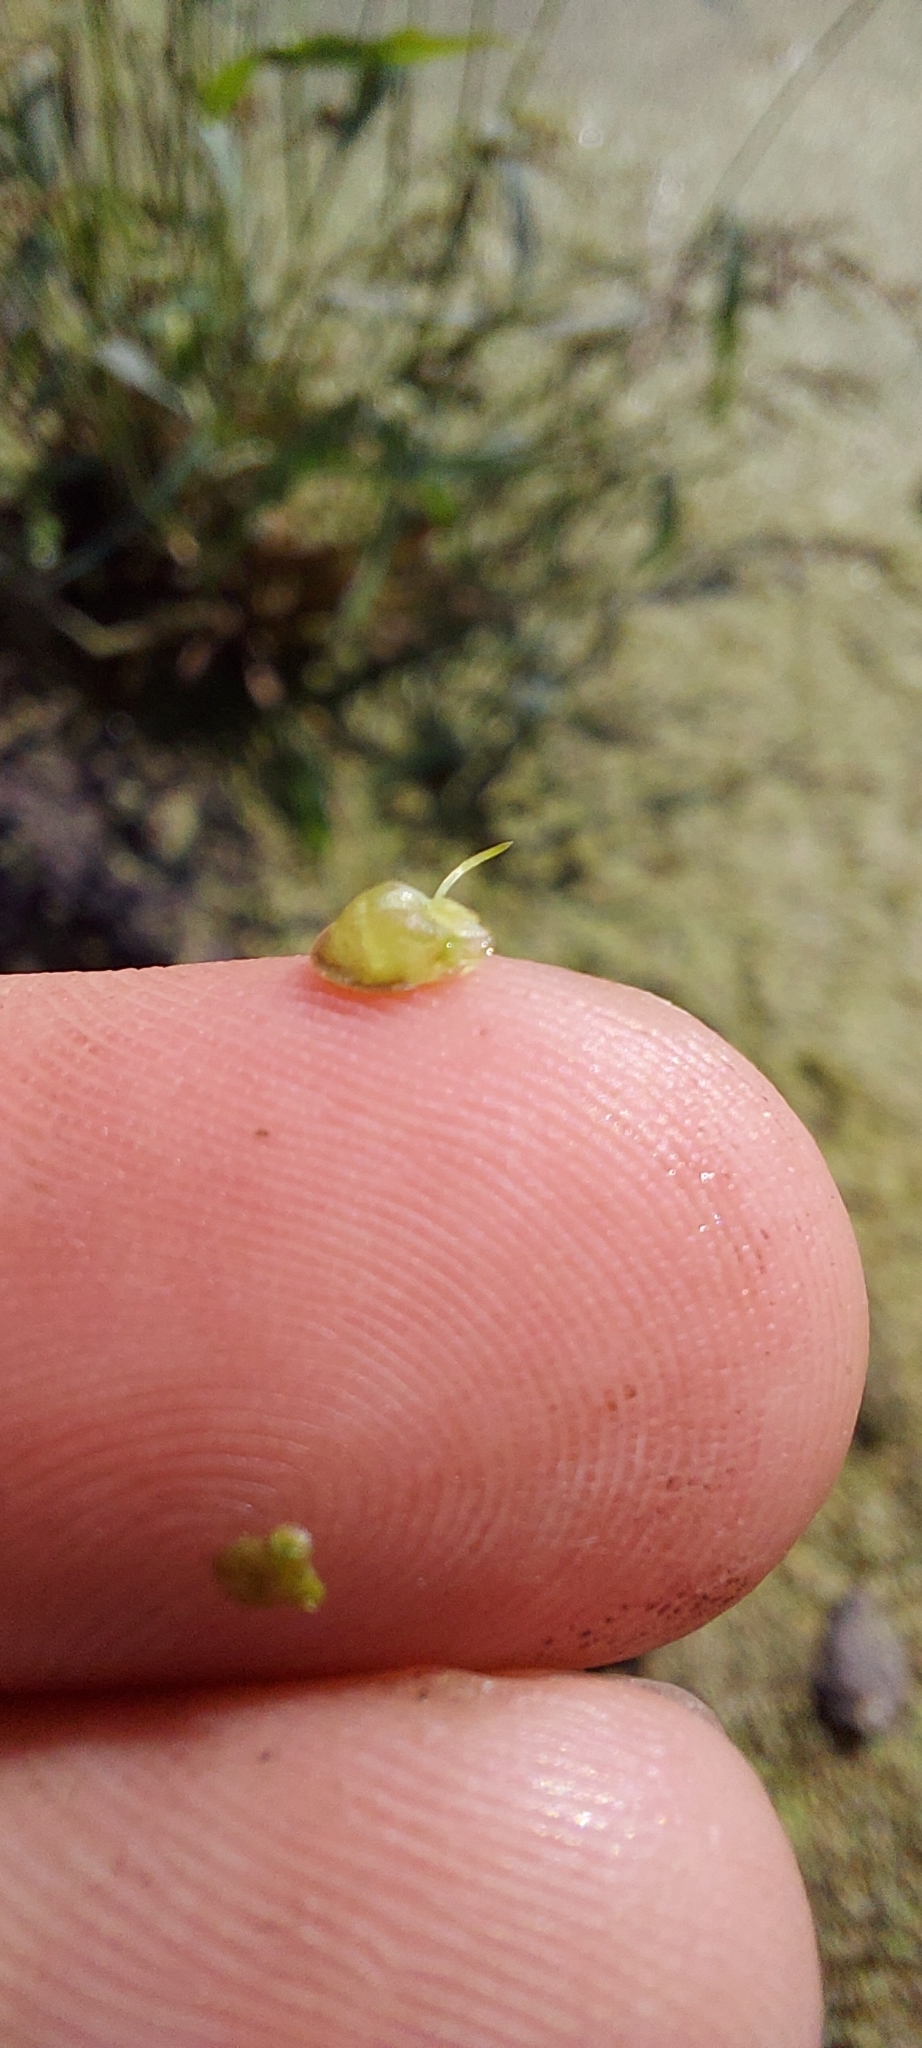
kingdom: Plantae
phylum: Tracheophyta
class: Liliopsida
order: Alismatales
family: Araceae
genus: Lemna
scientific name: Lemna gibba
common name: Fat duckweed
